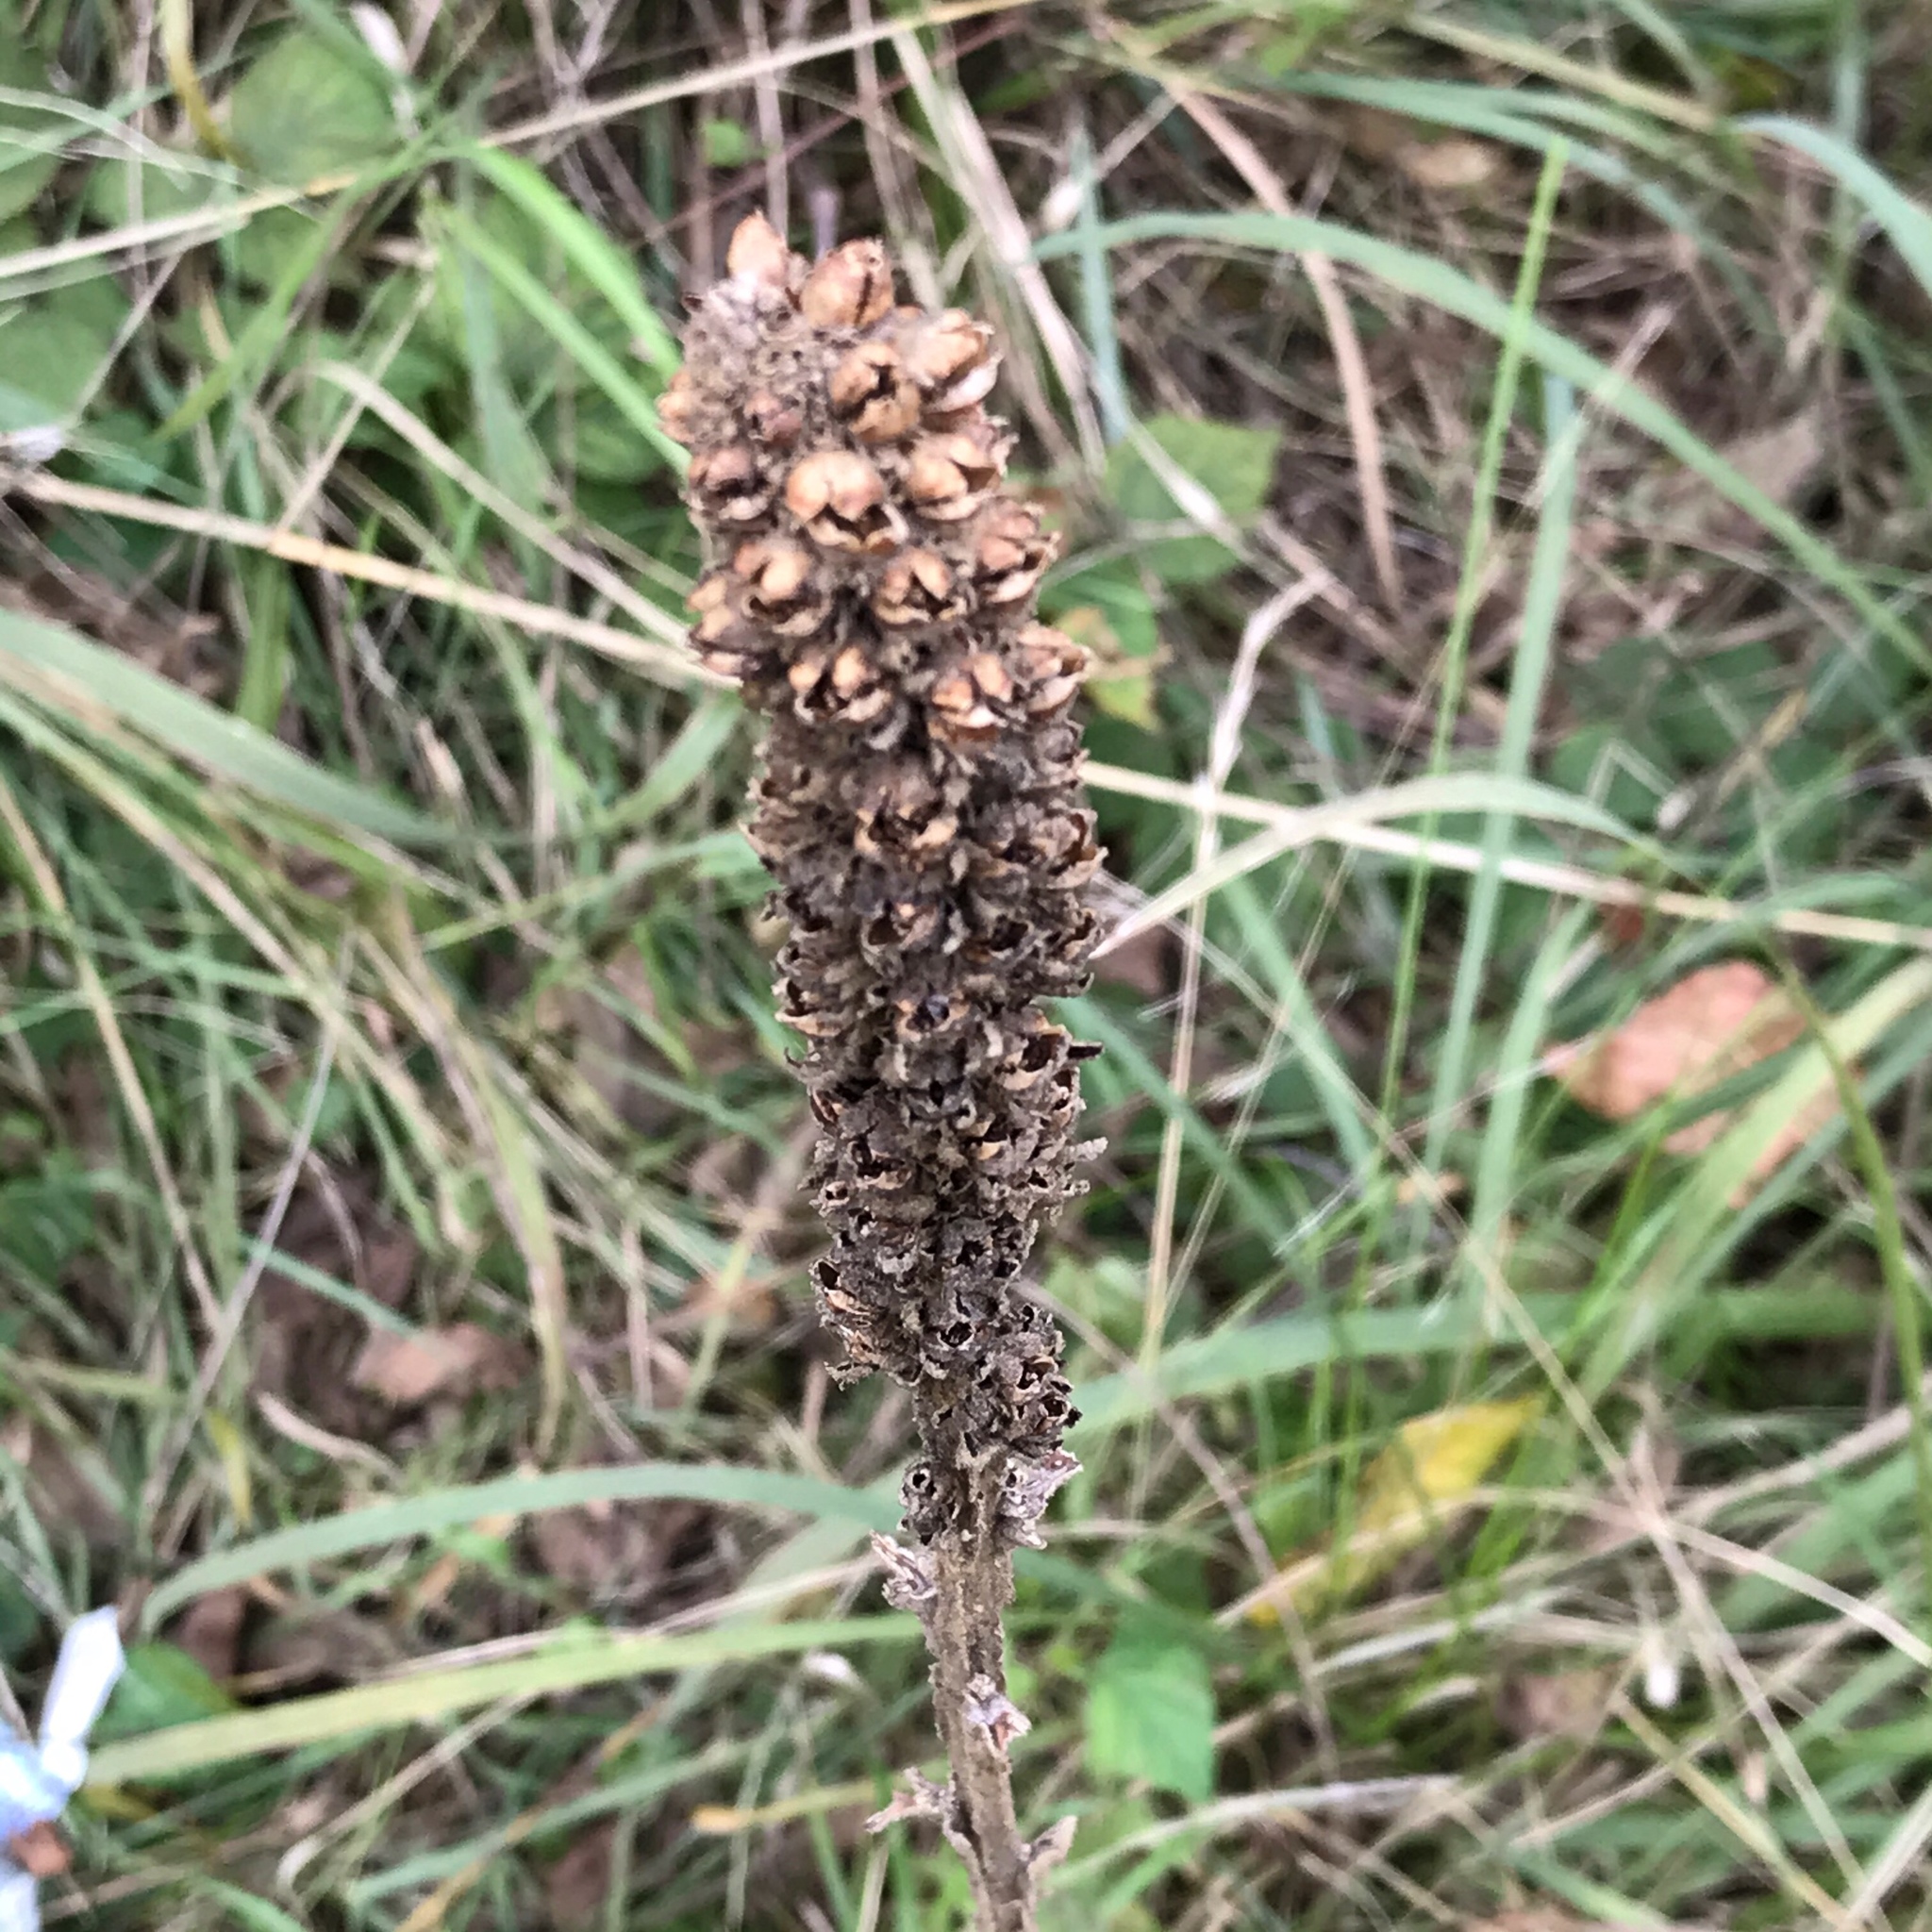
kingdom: Plantae
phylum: Tracheophyta
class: Magnoliopsida
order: Lamiales
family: Scrophulariaceae
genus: Verbascum
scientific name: Verbascum thapsus
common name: Common mullein
